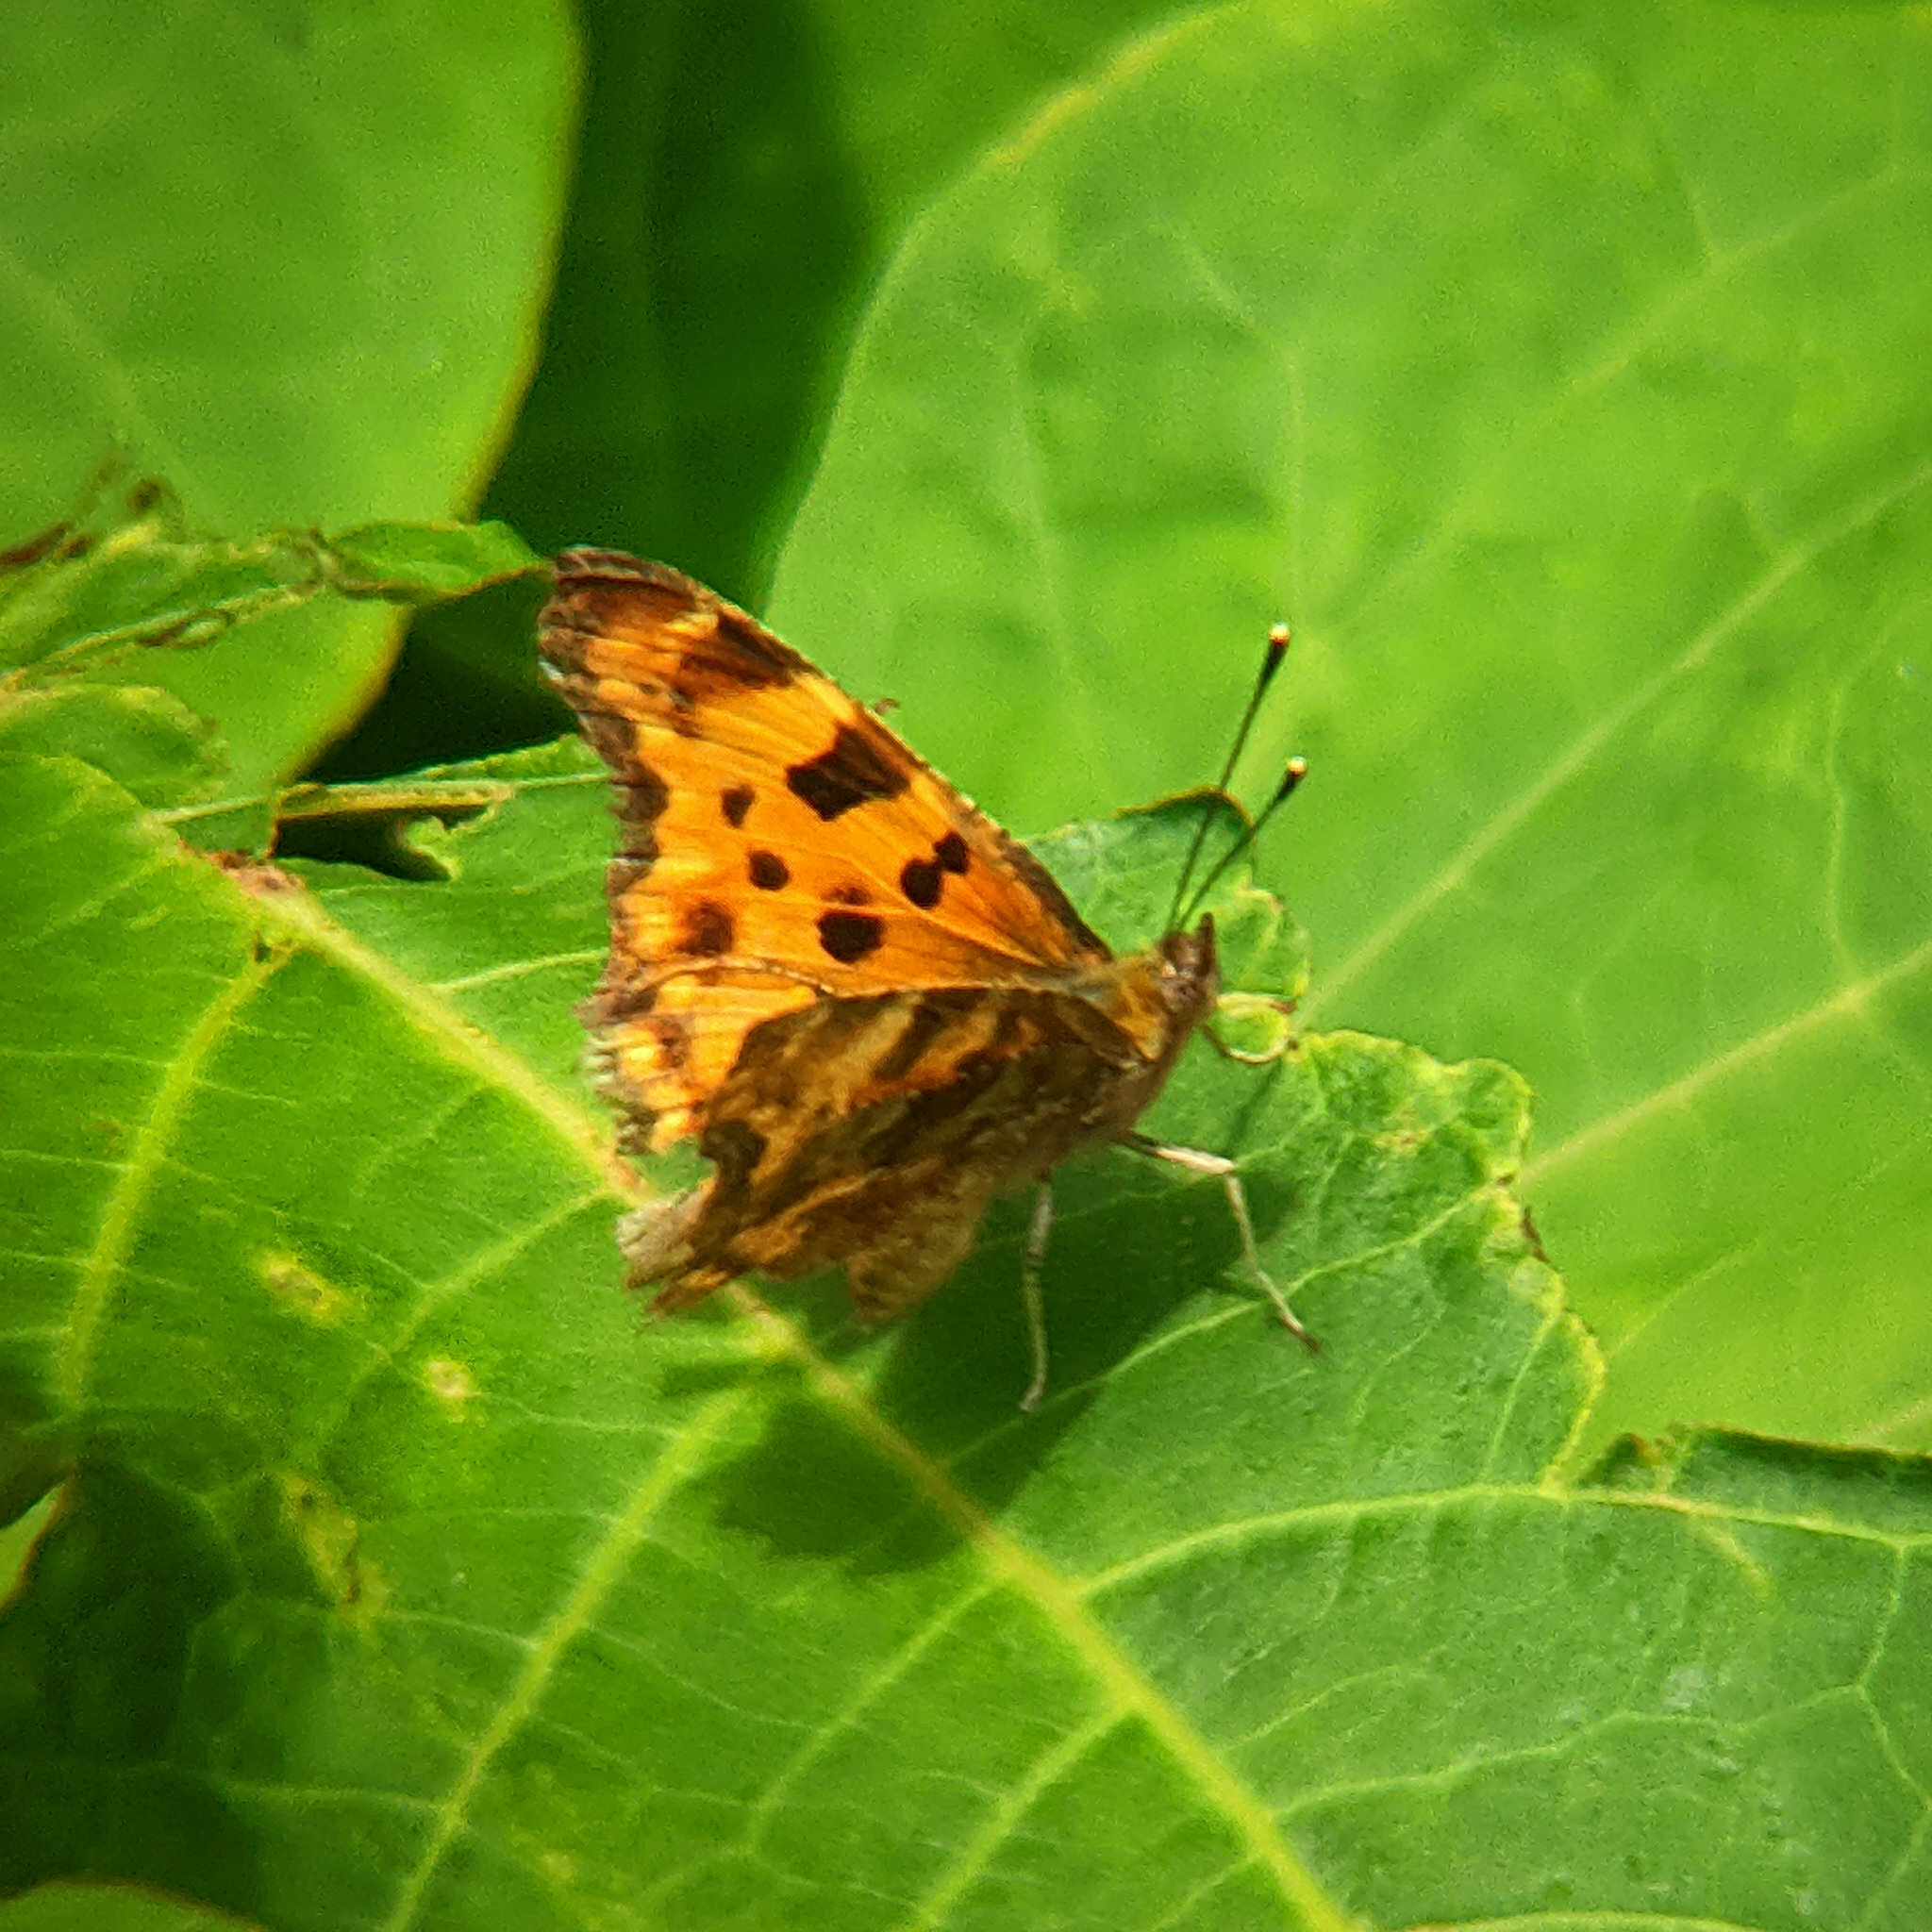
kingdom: Animalia
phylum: Arthropoda
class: Insecta
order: Lepidoptera
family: Nymphalidae
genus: Polygonia
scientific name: Polygonia c-album
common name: Comma
